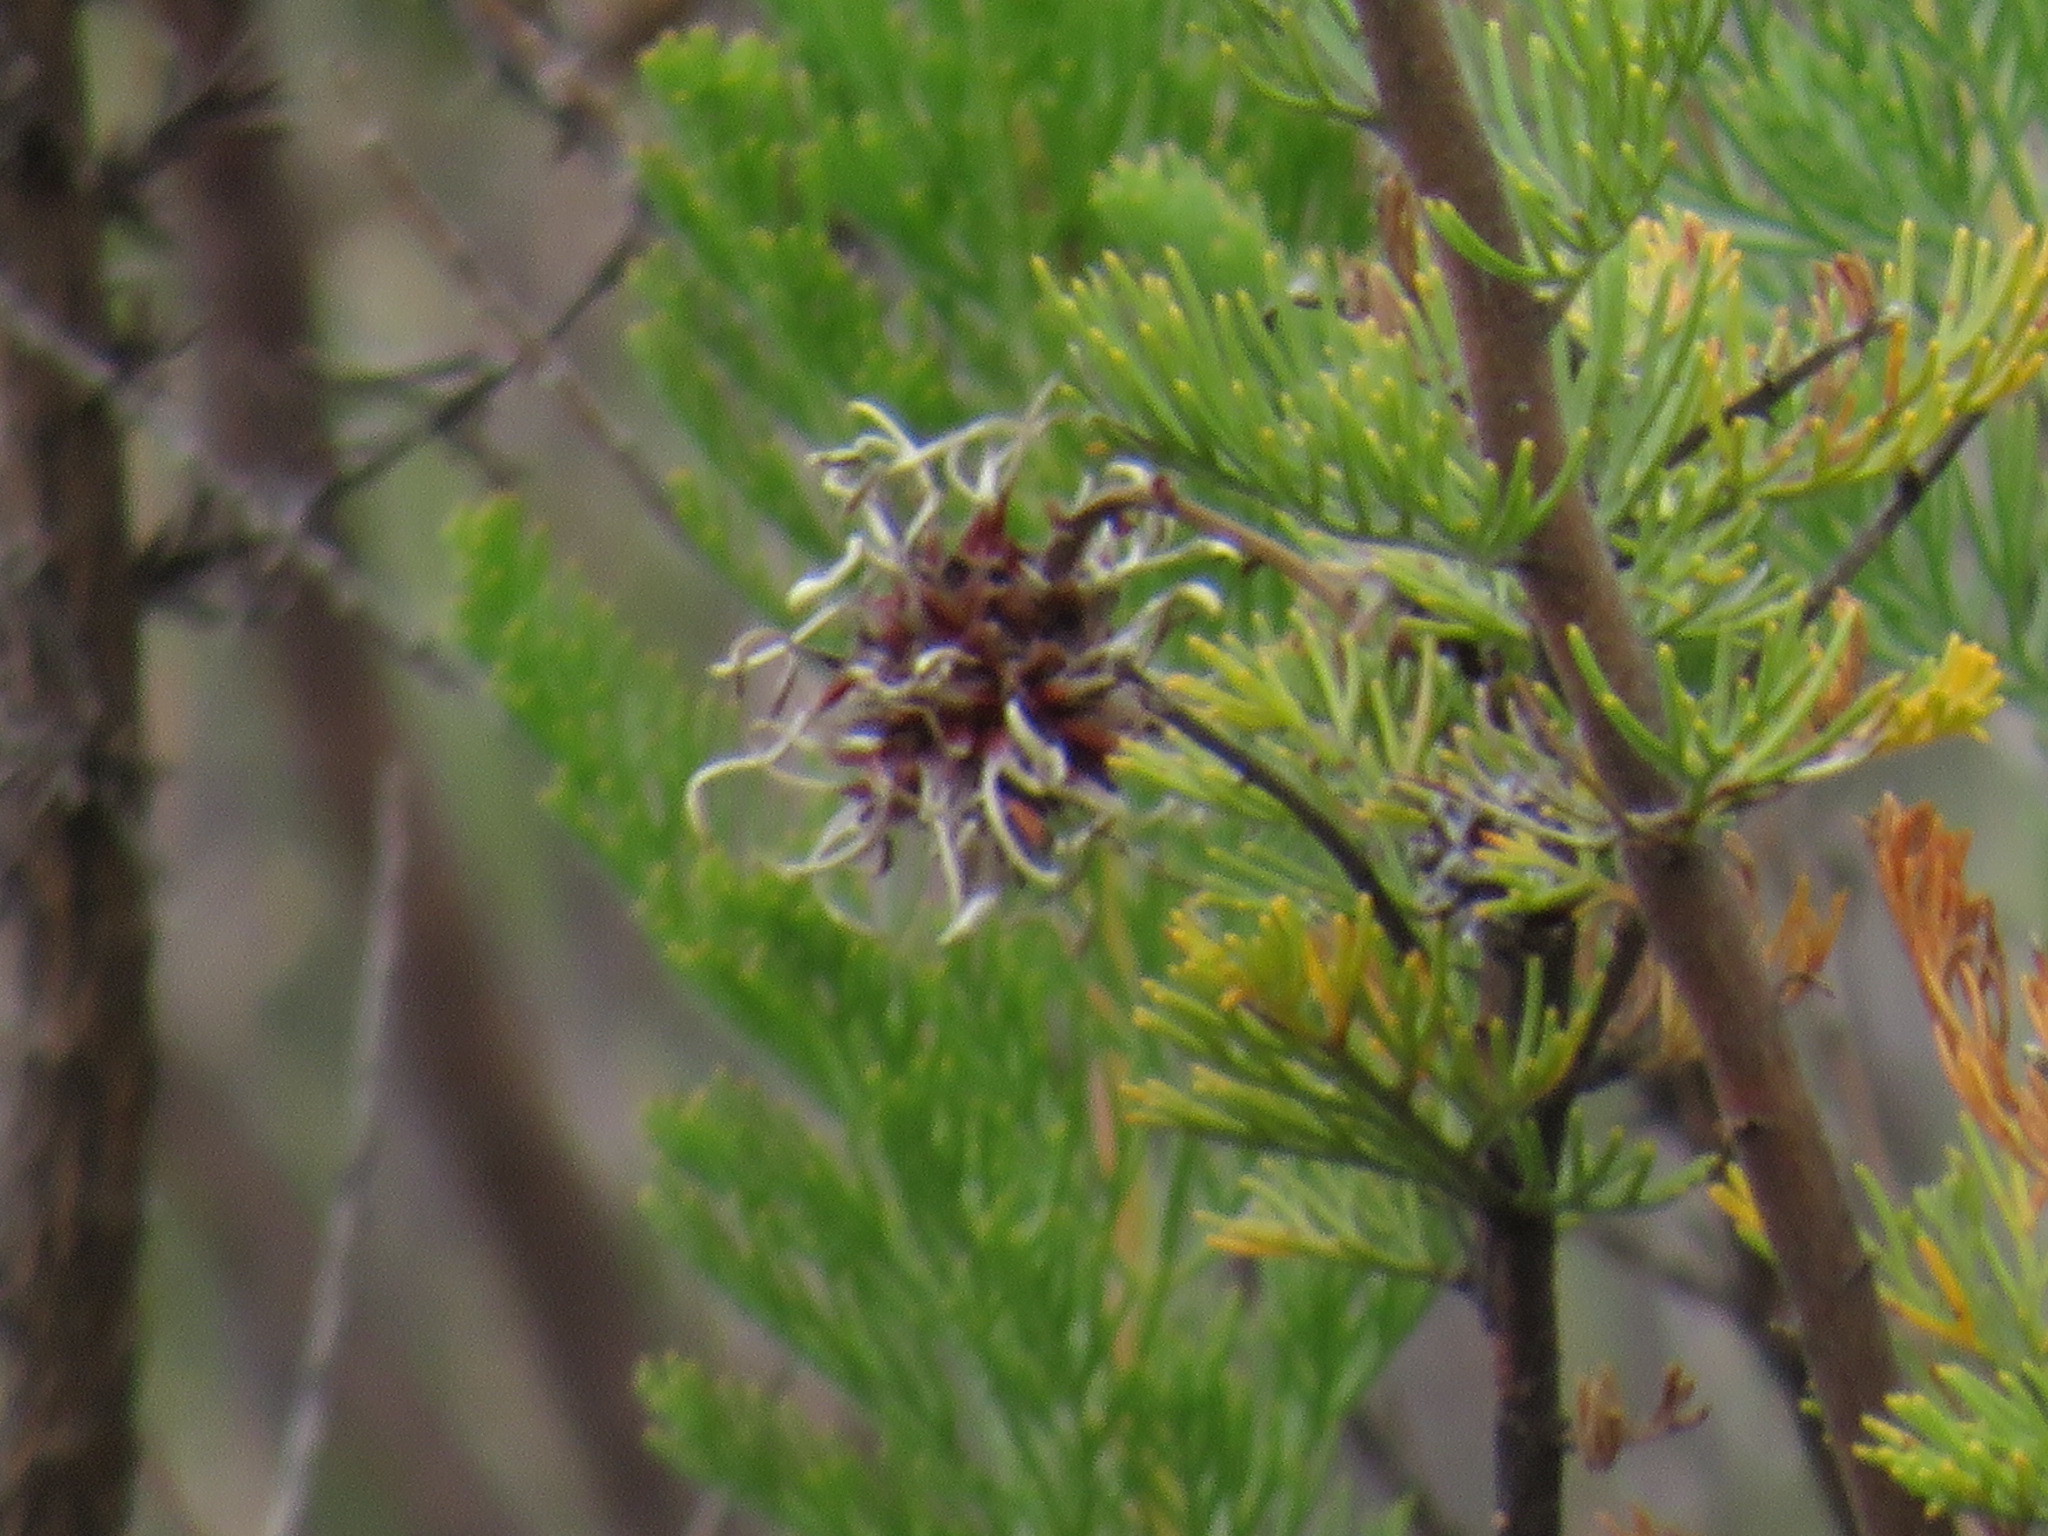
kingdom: Plantae
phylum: Tracheophyta
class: Magnoliopsida
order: Proteales
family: Proteaceae
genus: Serruria
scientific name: Serruria pedunculata
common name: Fan-leaf spiderhead
